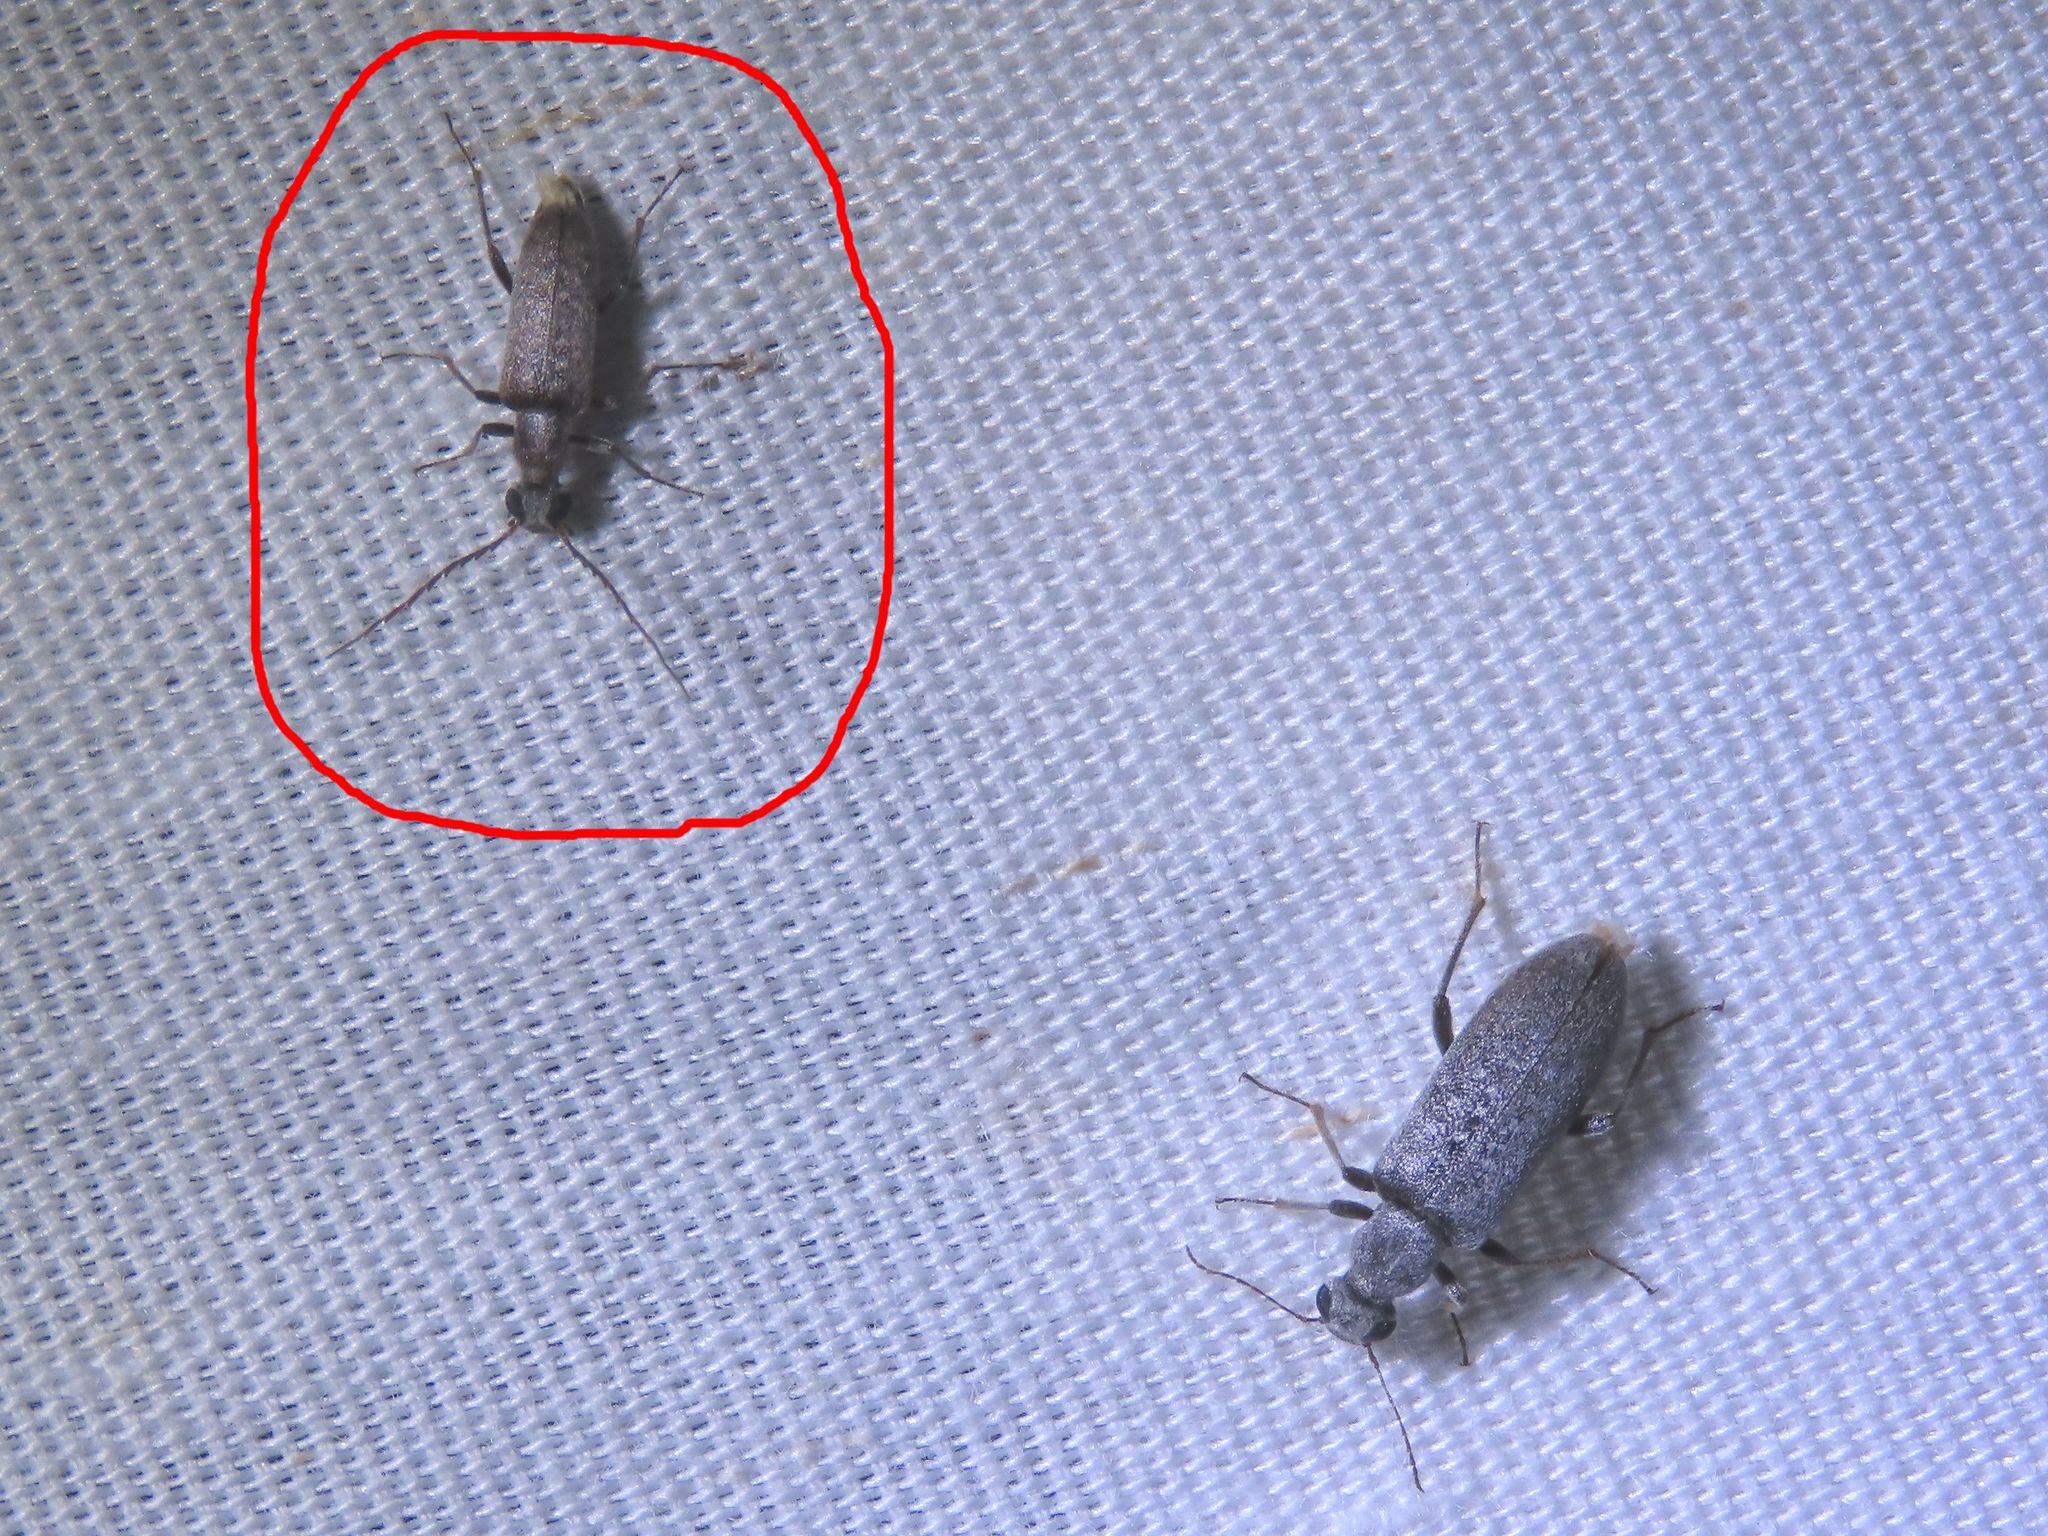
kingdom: Animalia
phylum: Arthropoda
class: Insecta
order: Coleoptera
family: Anthicidae
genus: Leptoremus
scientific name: Leptoremus argenteus
